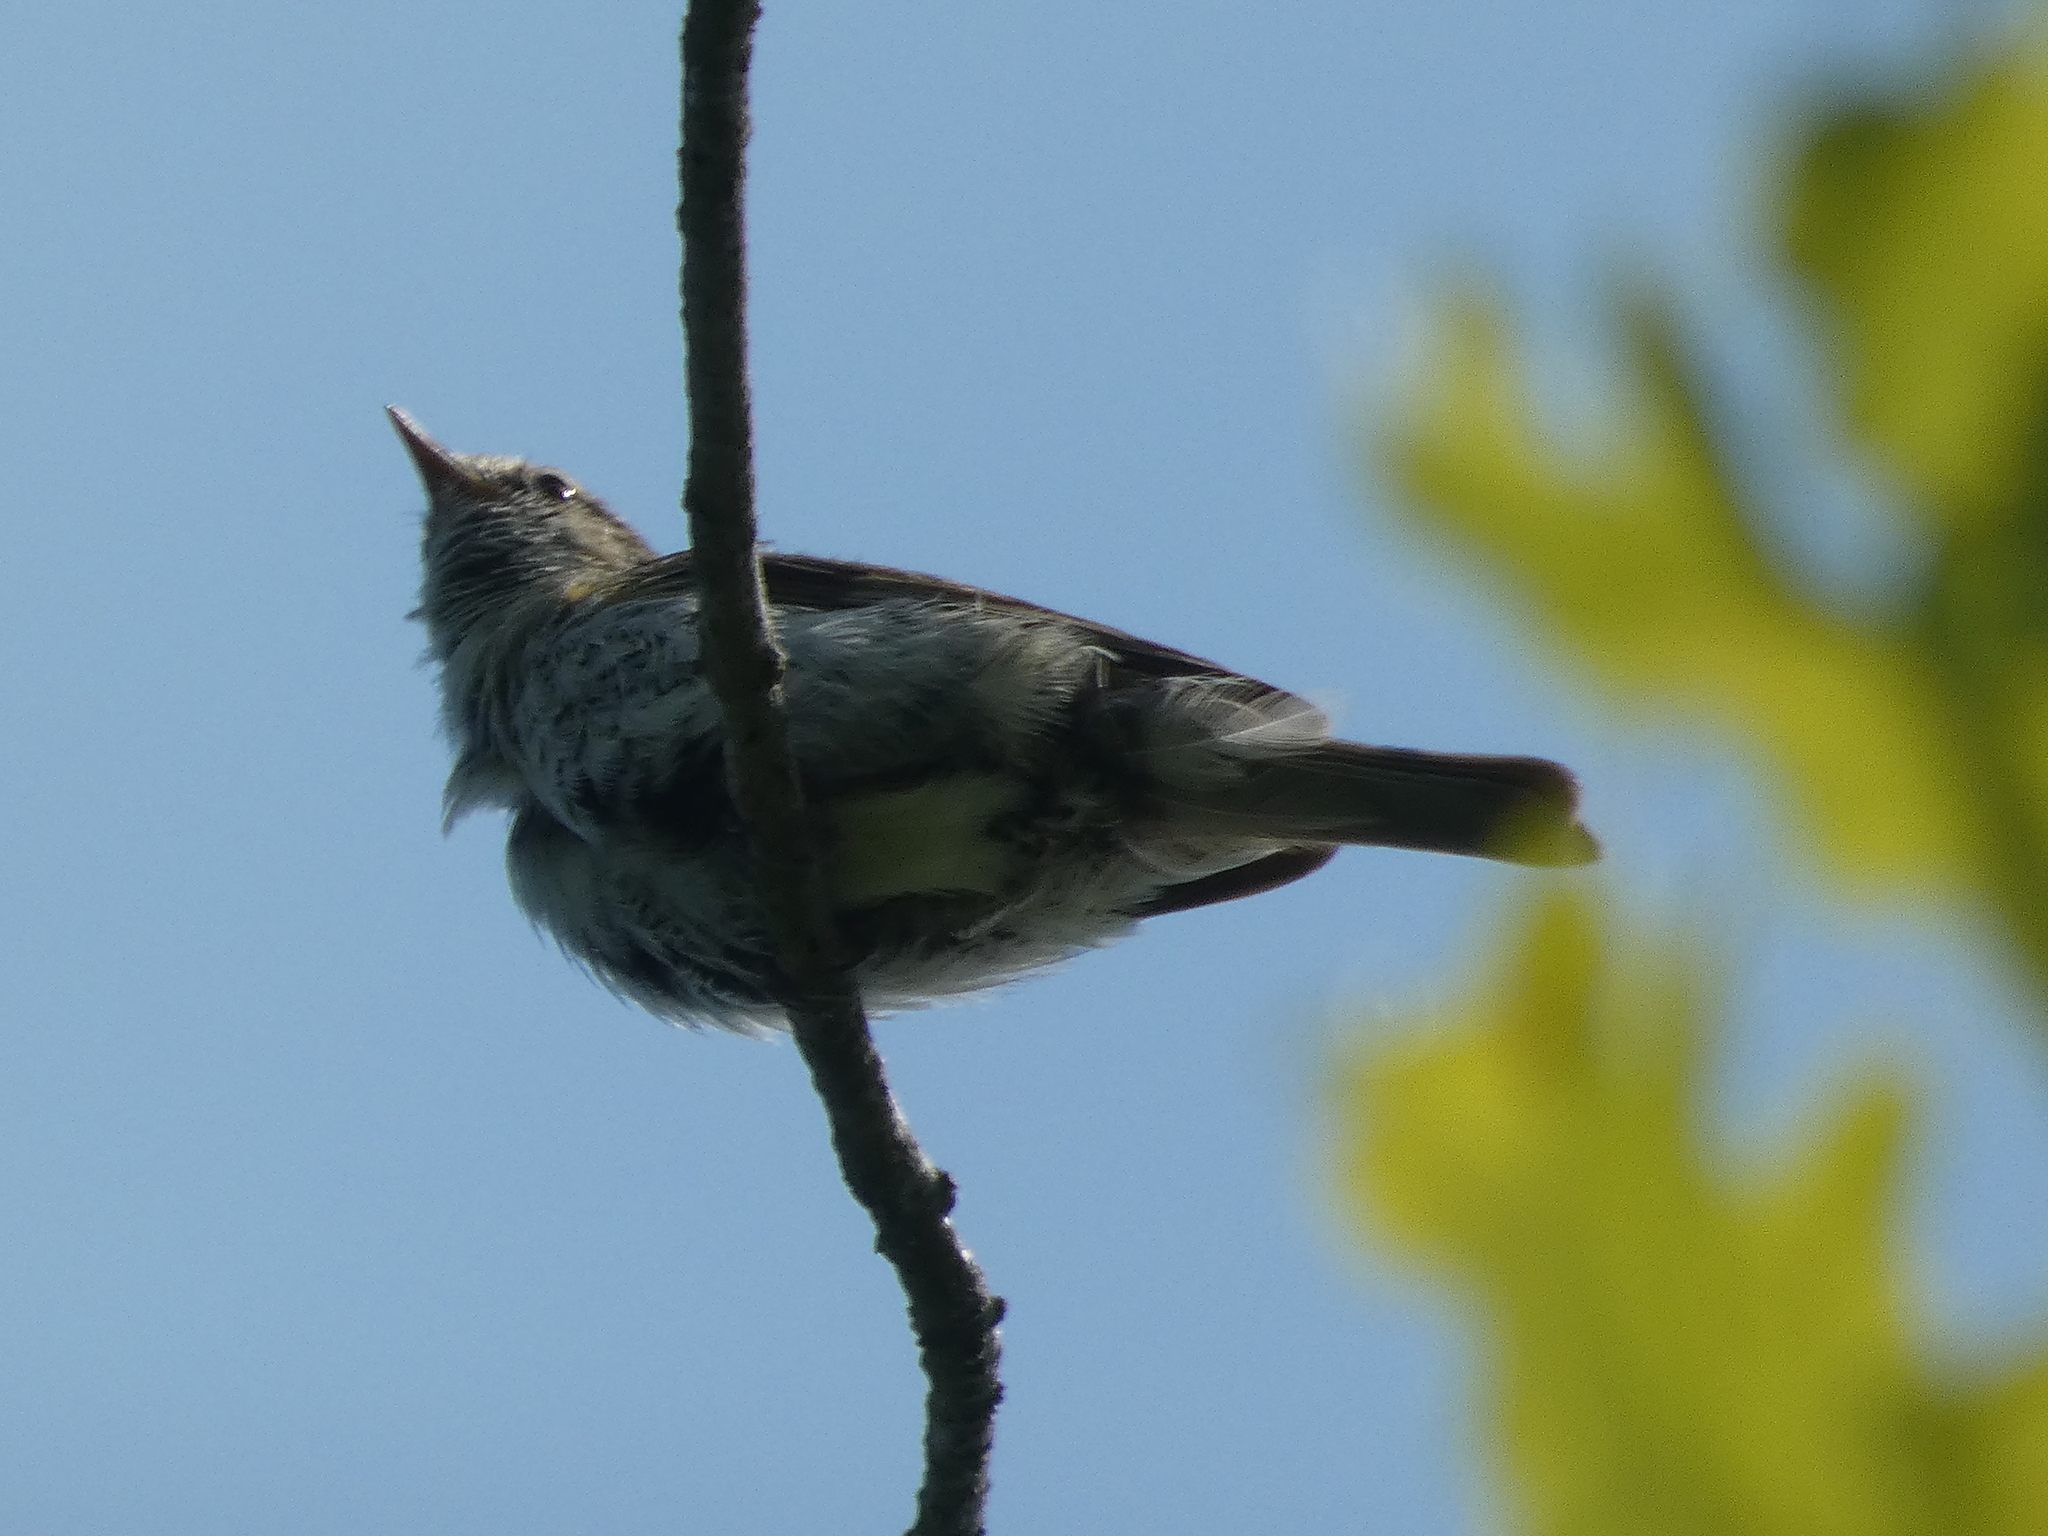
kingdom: Animalia
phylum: Chordata
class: Aves
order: Passeriformes
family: Phylloscopidae
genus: Phylloscopus
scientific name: Phylloscopus collybita
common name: Common chiffchaff
